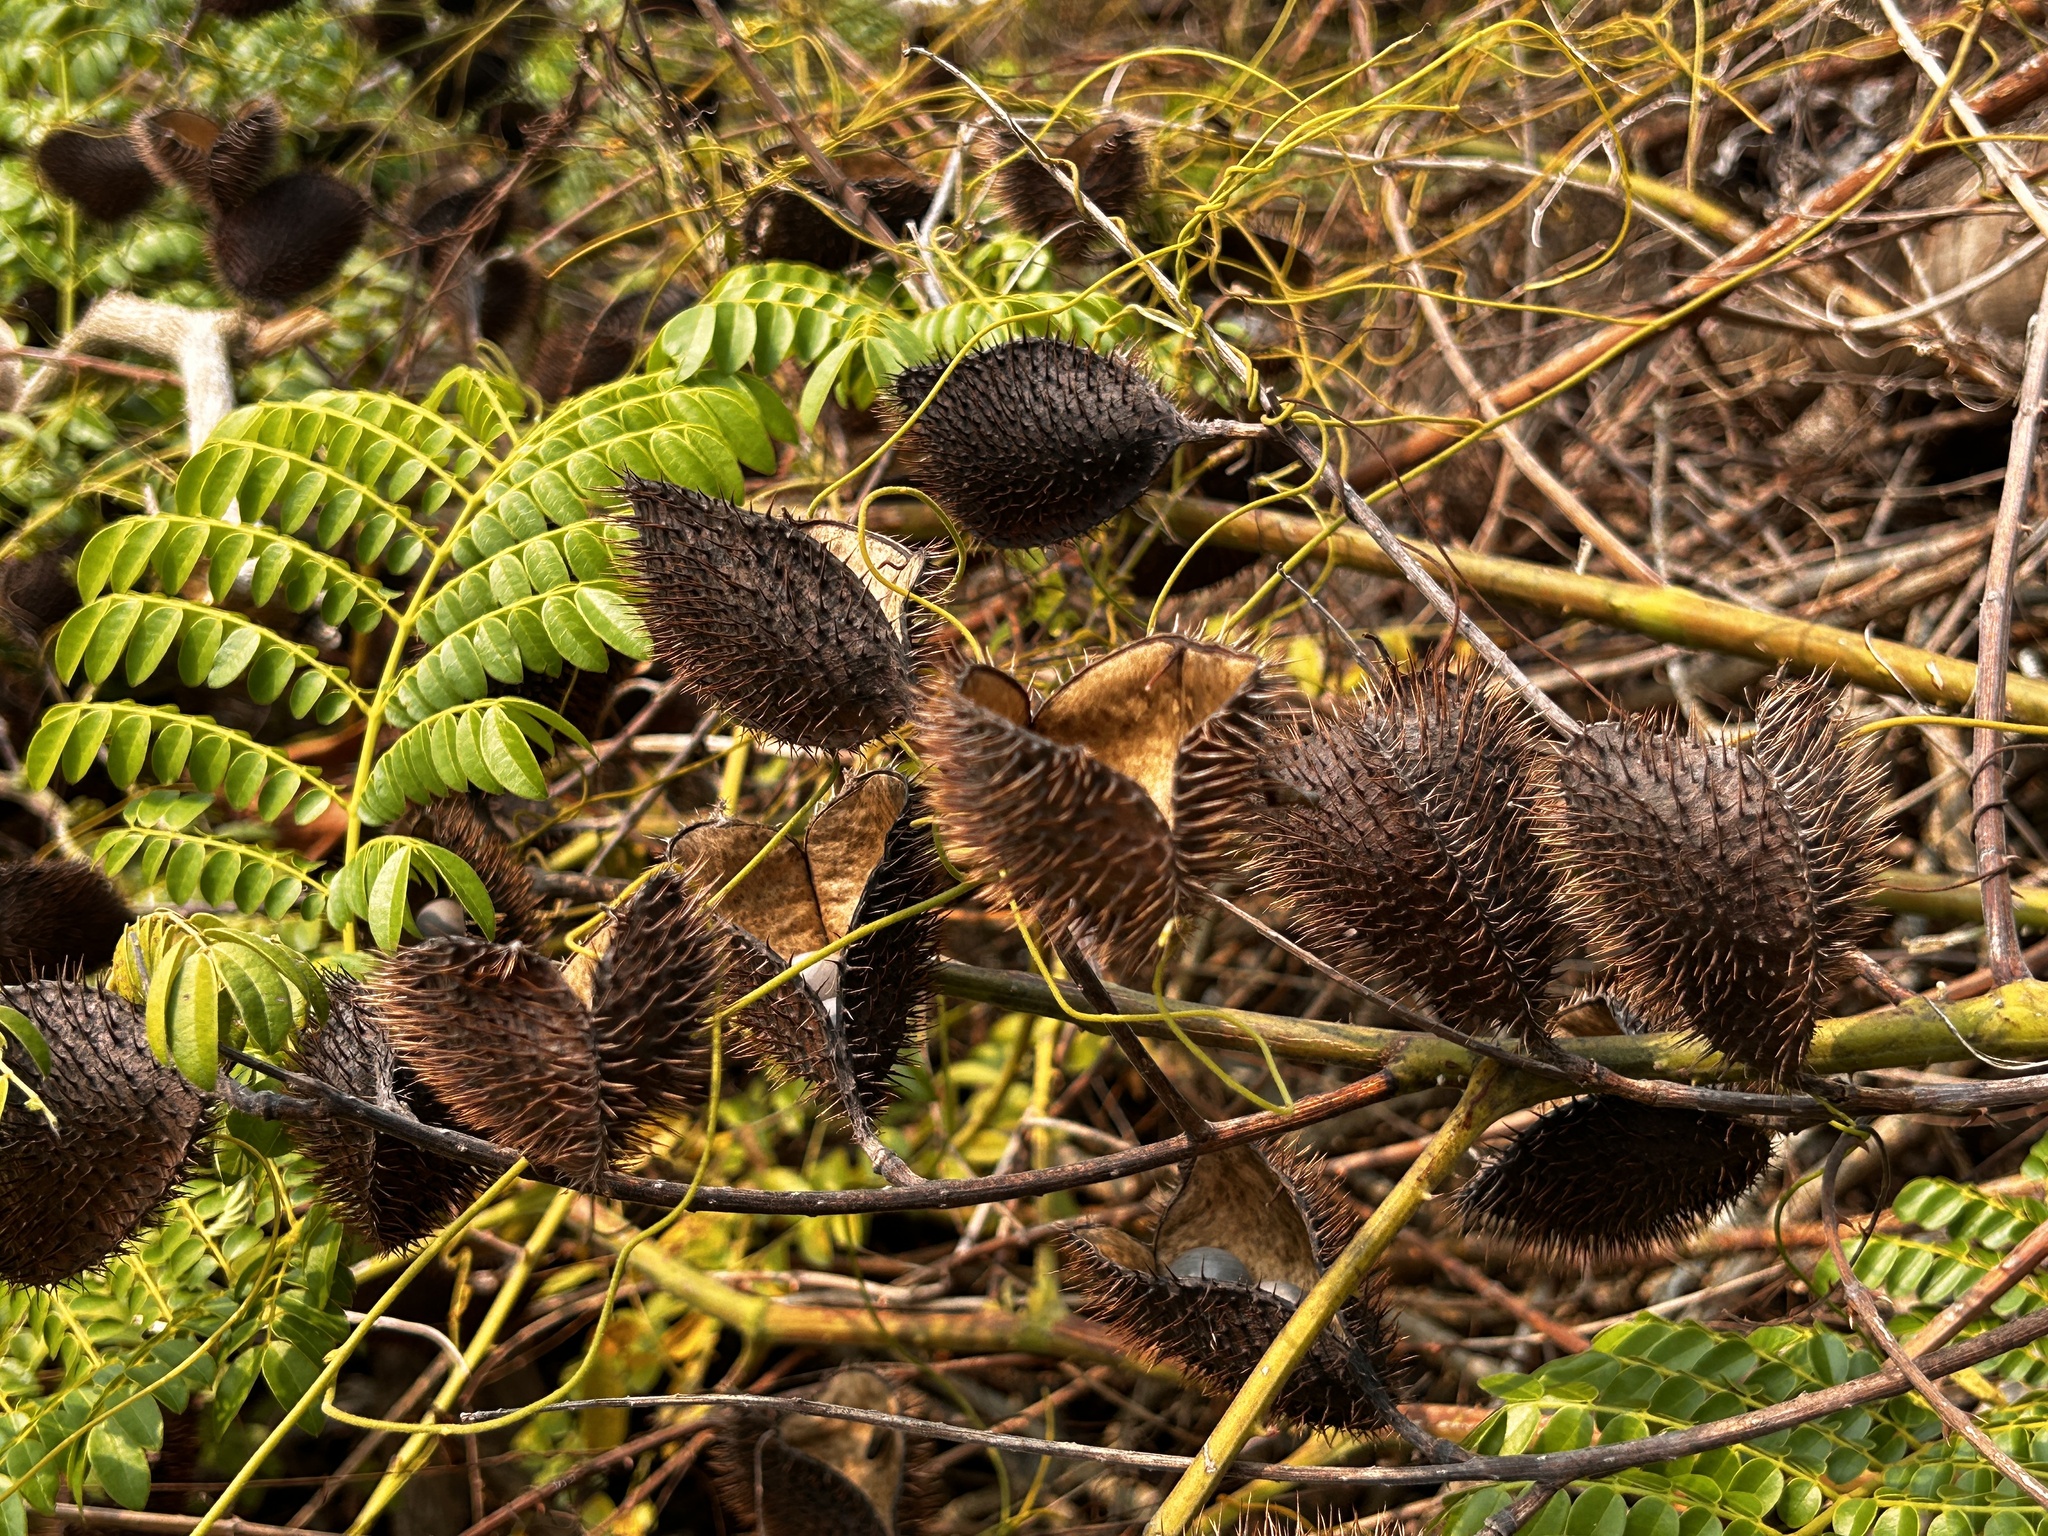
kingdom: Plantae
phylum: Tracheophyta
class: Magnoliopsida
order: Fabales
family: Fabaceae
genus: Guilandina
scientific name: Guilandina bonduc
